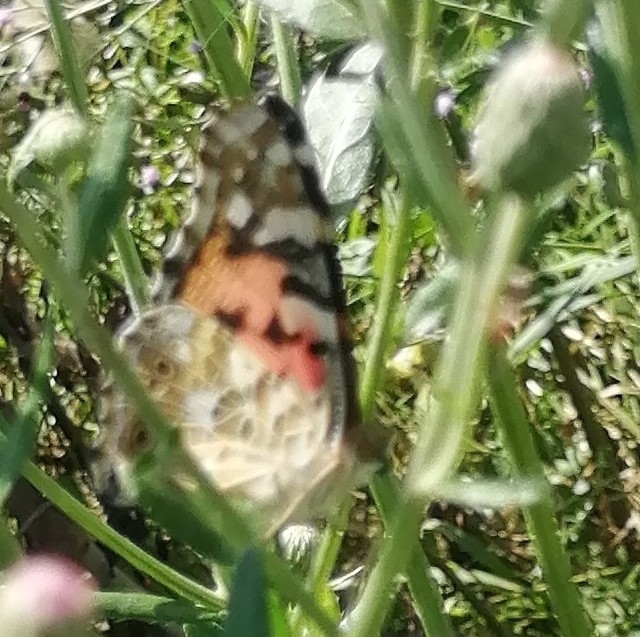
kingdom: Animalia
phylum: Arthropoda
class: Insecta
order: Lepidoptera
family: Nymphalidae
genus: Vanessa
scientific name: Vanessa cardui
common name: Painted lady
